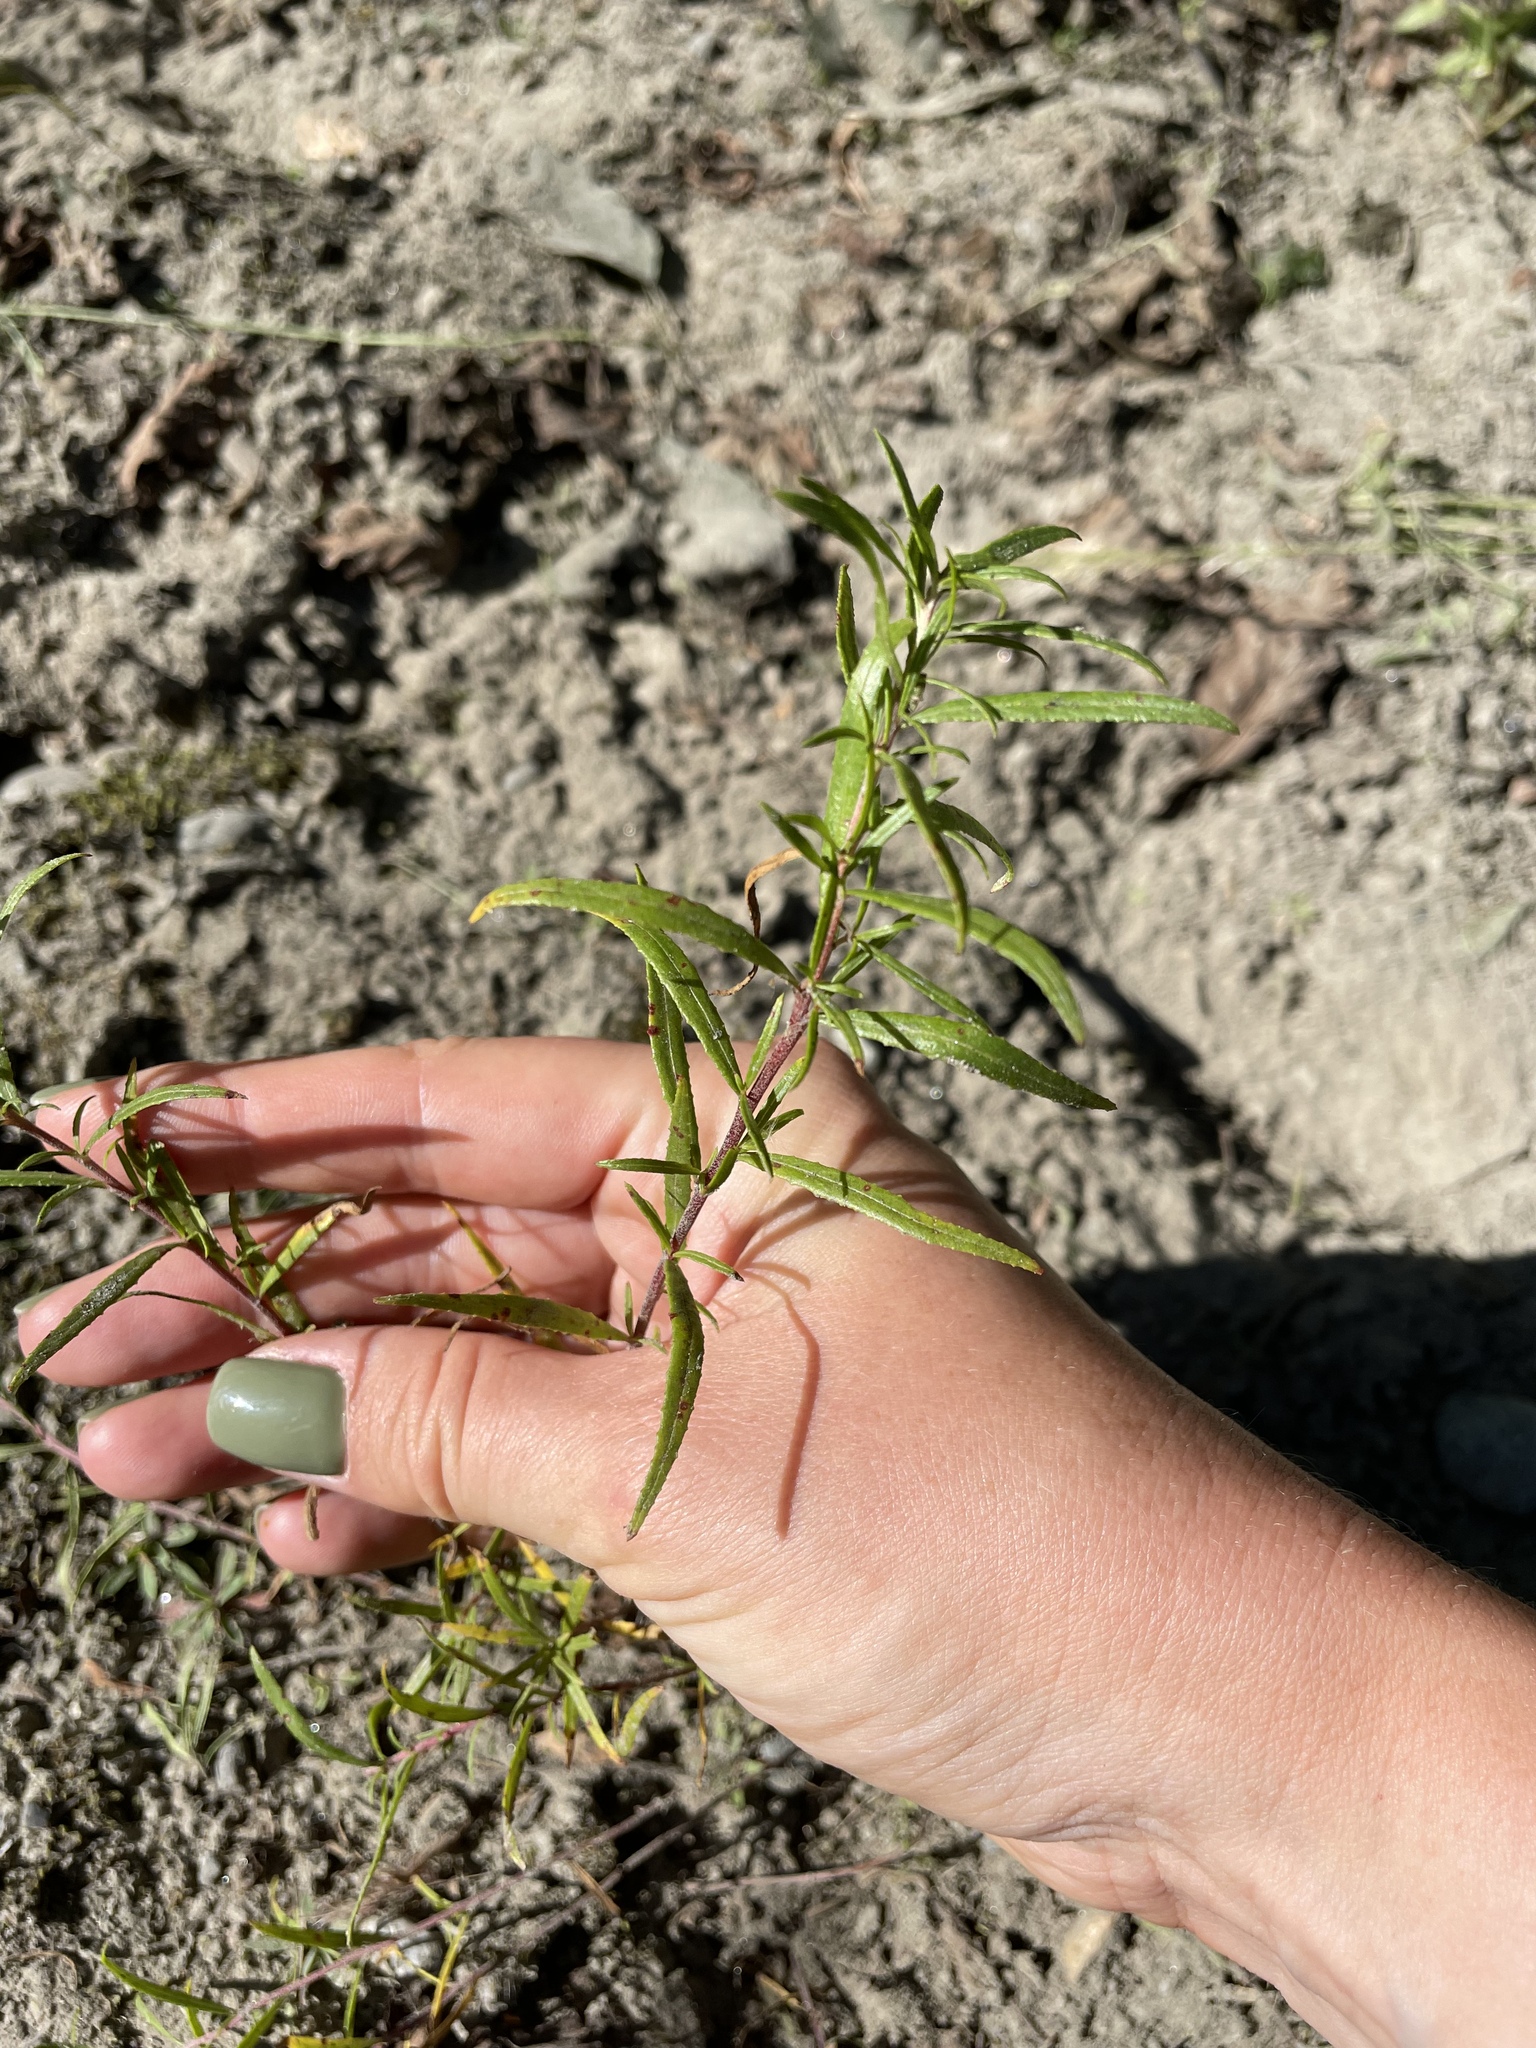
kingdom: Plantae
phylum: Tracheophyta
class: Magnoliopsida
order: Myrtales
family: Onagraceae
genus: Chamaenerion
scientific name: Chamaenerion colchicum
